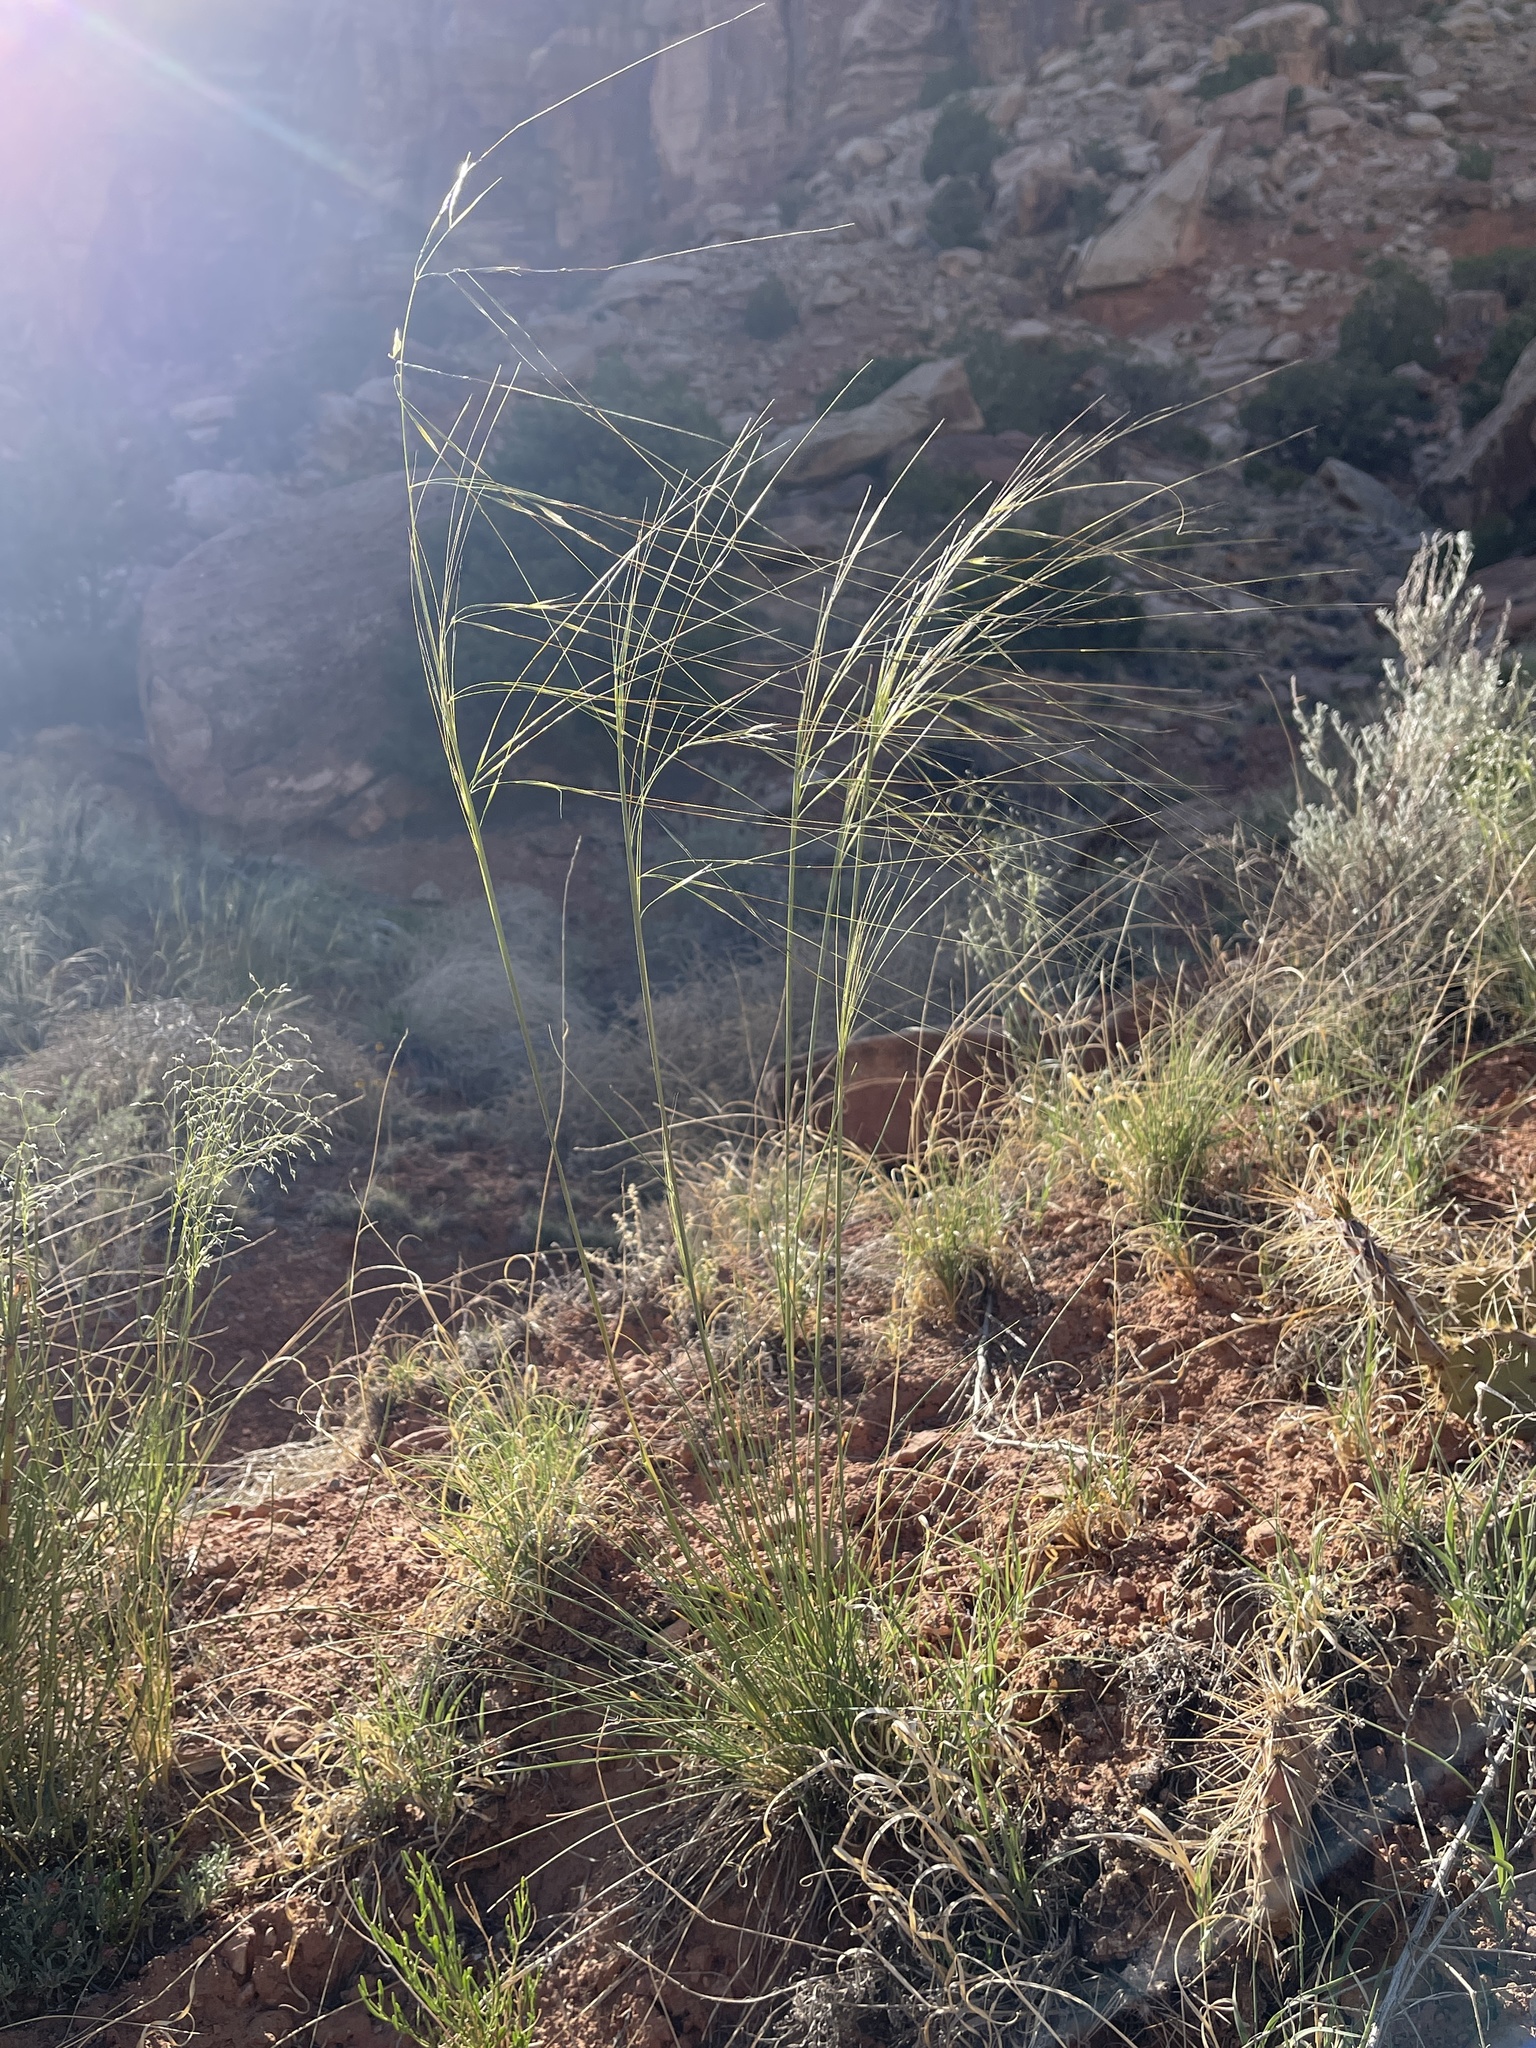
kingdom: Plantae
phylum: Tracheophyta
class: Liliopsida
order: Poales
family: Poaceae
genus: Hesperostipa
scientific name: Hesperostipa comata
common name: Needle-and-thread grass
